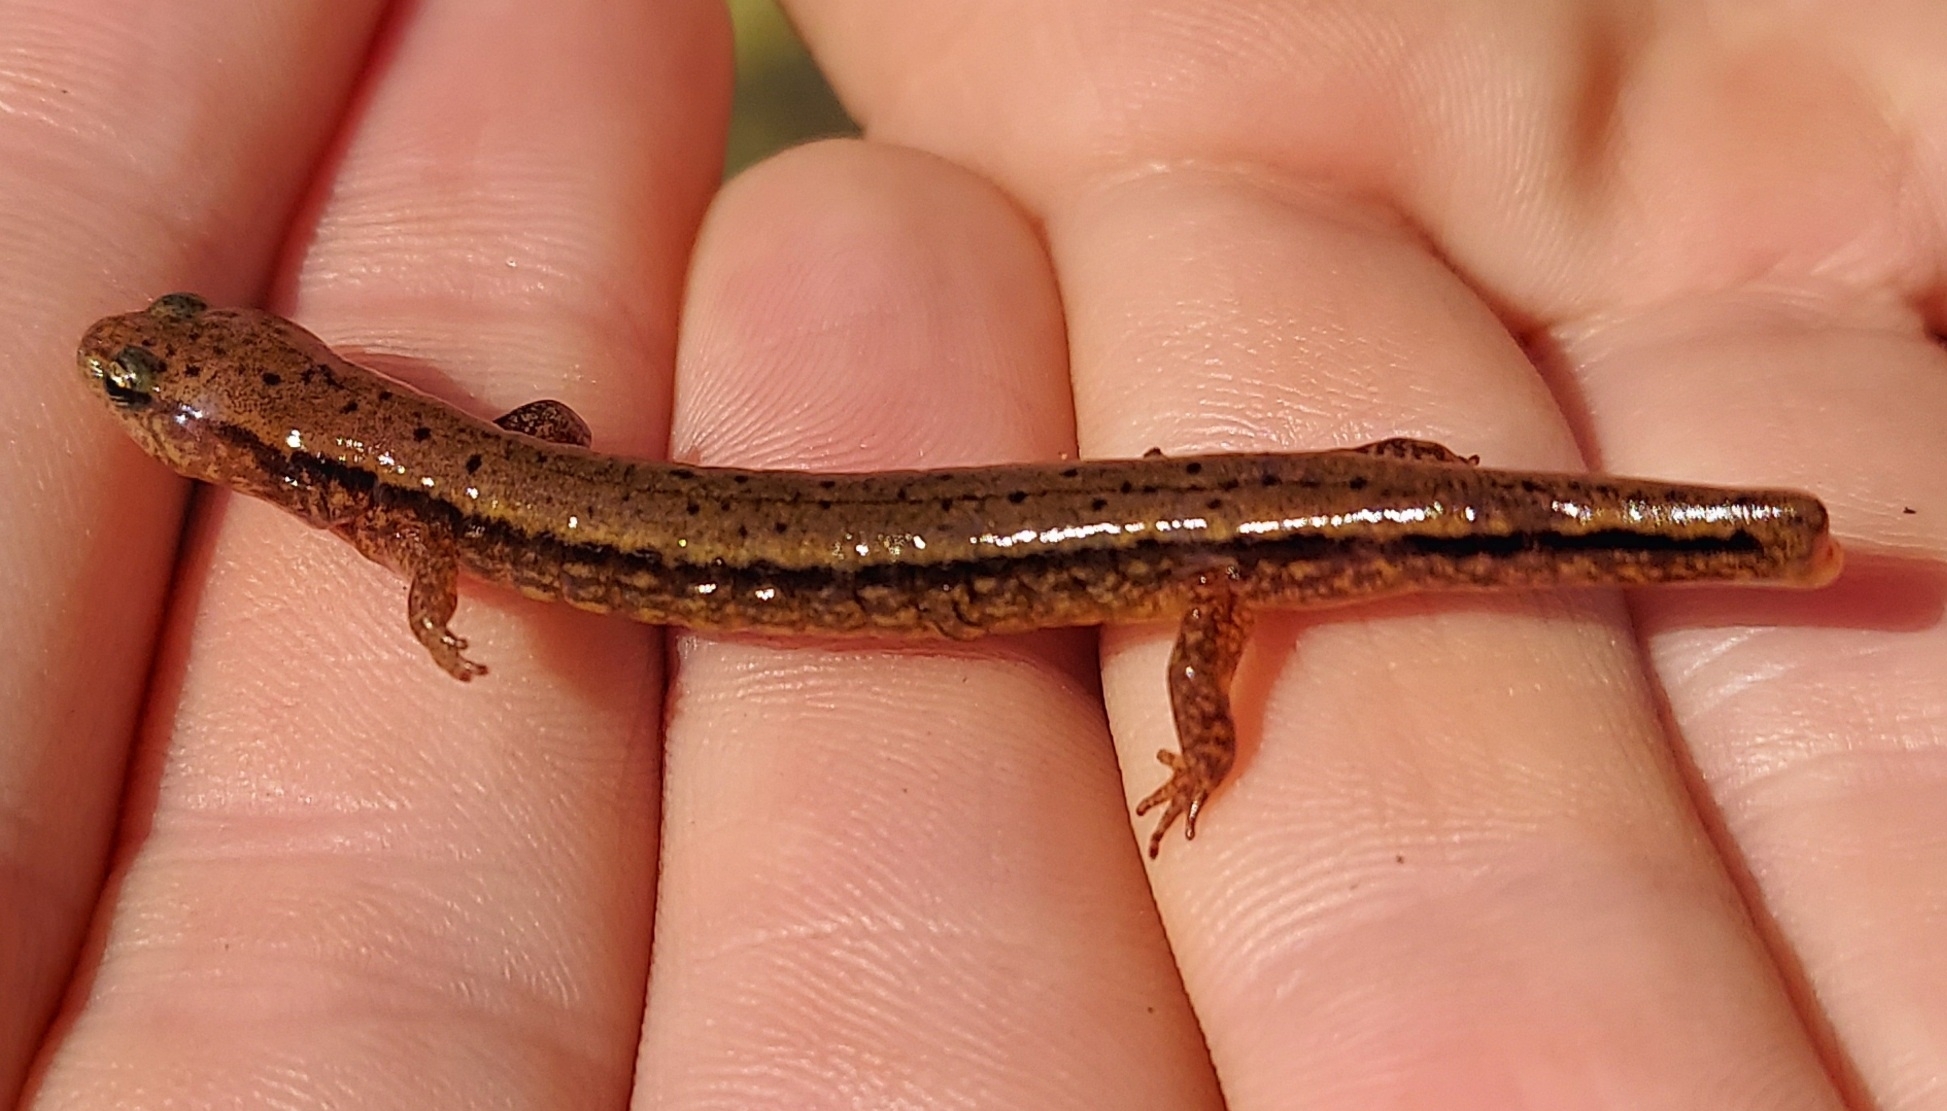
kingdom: Animalia
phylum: Chordata
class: Amphibia
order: Caudata
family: Plethodontidae
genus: Eurycea
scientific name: Eurycea cirrigera
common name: Southern two-lined salamander
